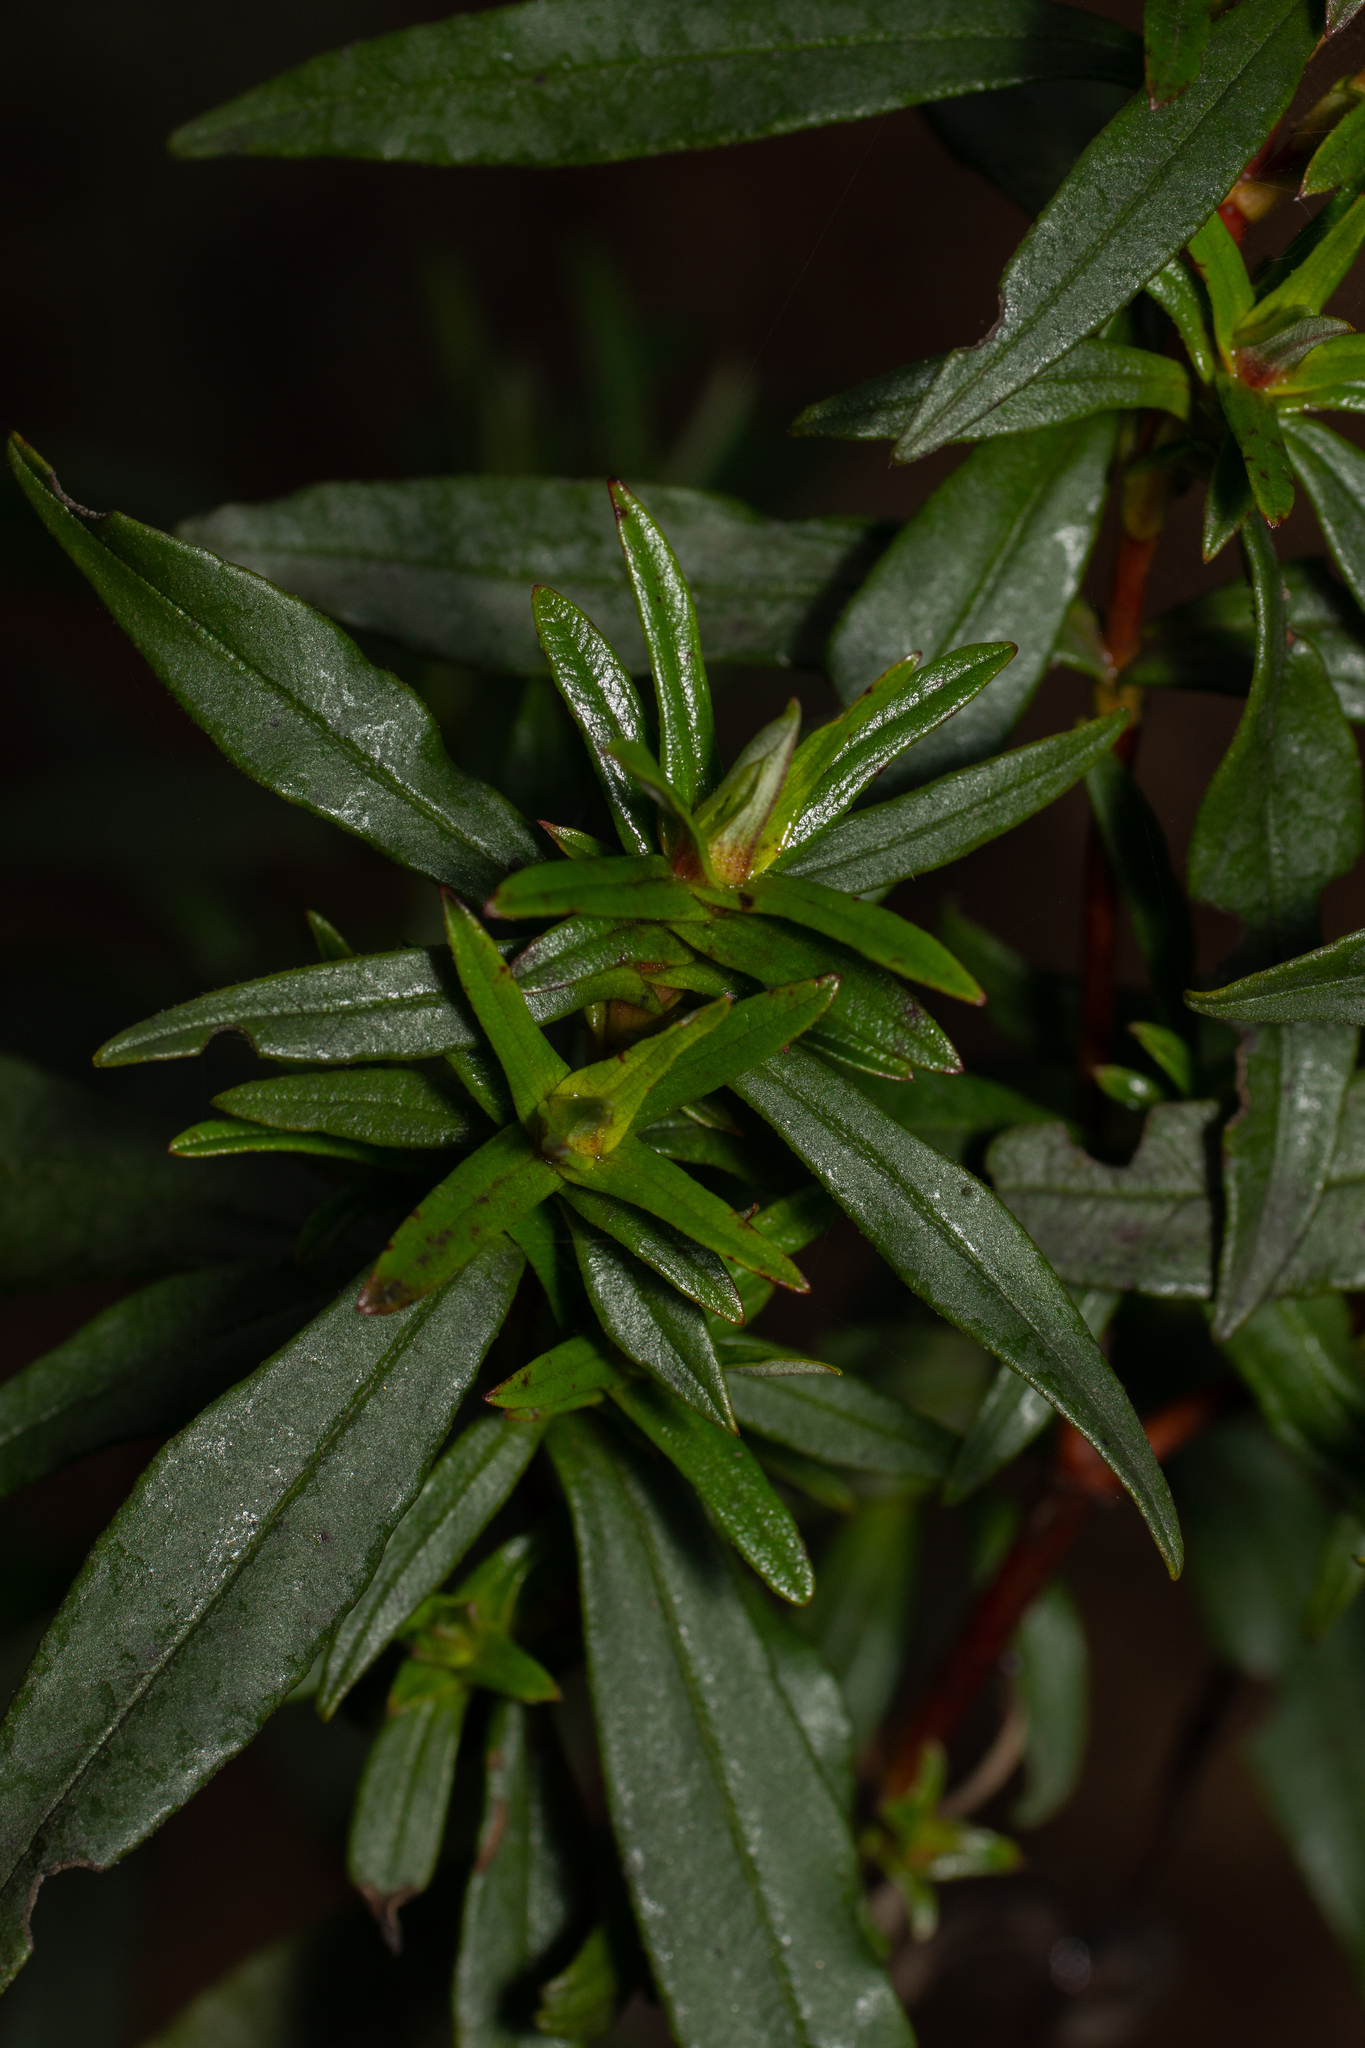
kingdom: Plantae
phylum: Tracheophyta
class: Magnoliopsida
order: Malvales
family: Cistaceae
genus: Cistus
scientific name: Cistus ladanifer
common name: Common gum cistus
